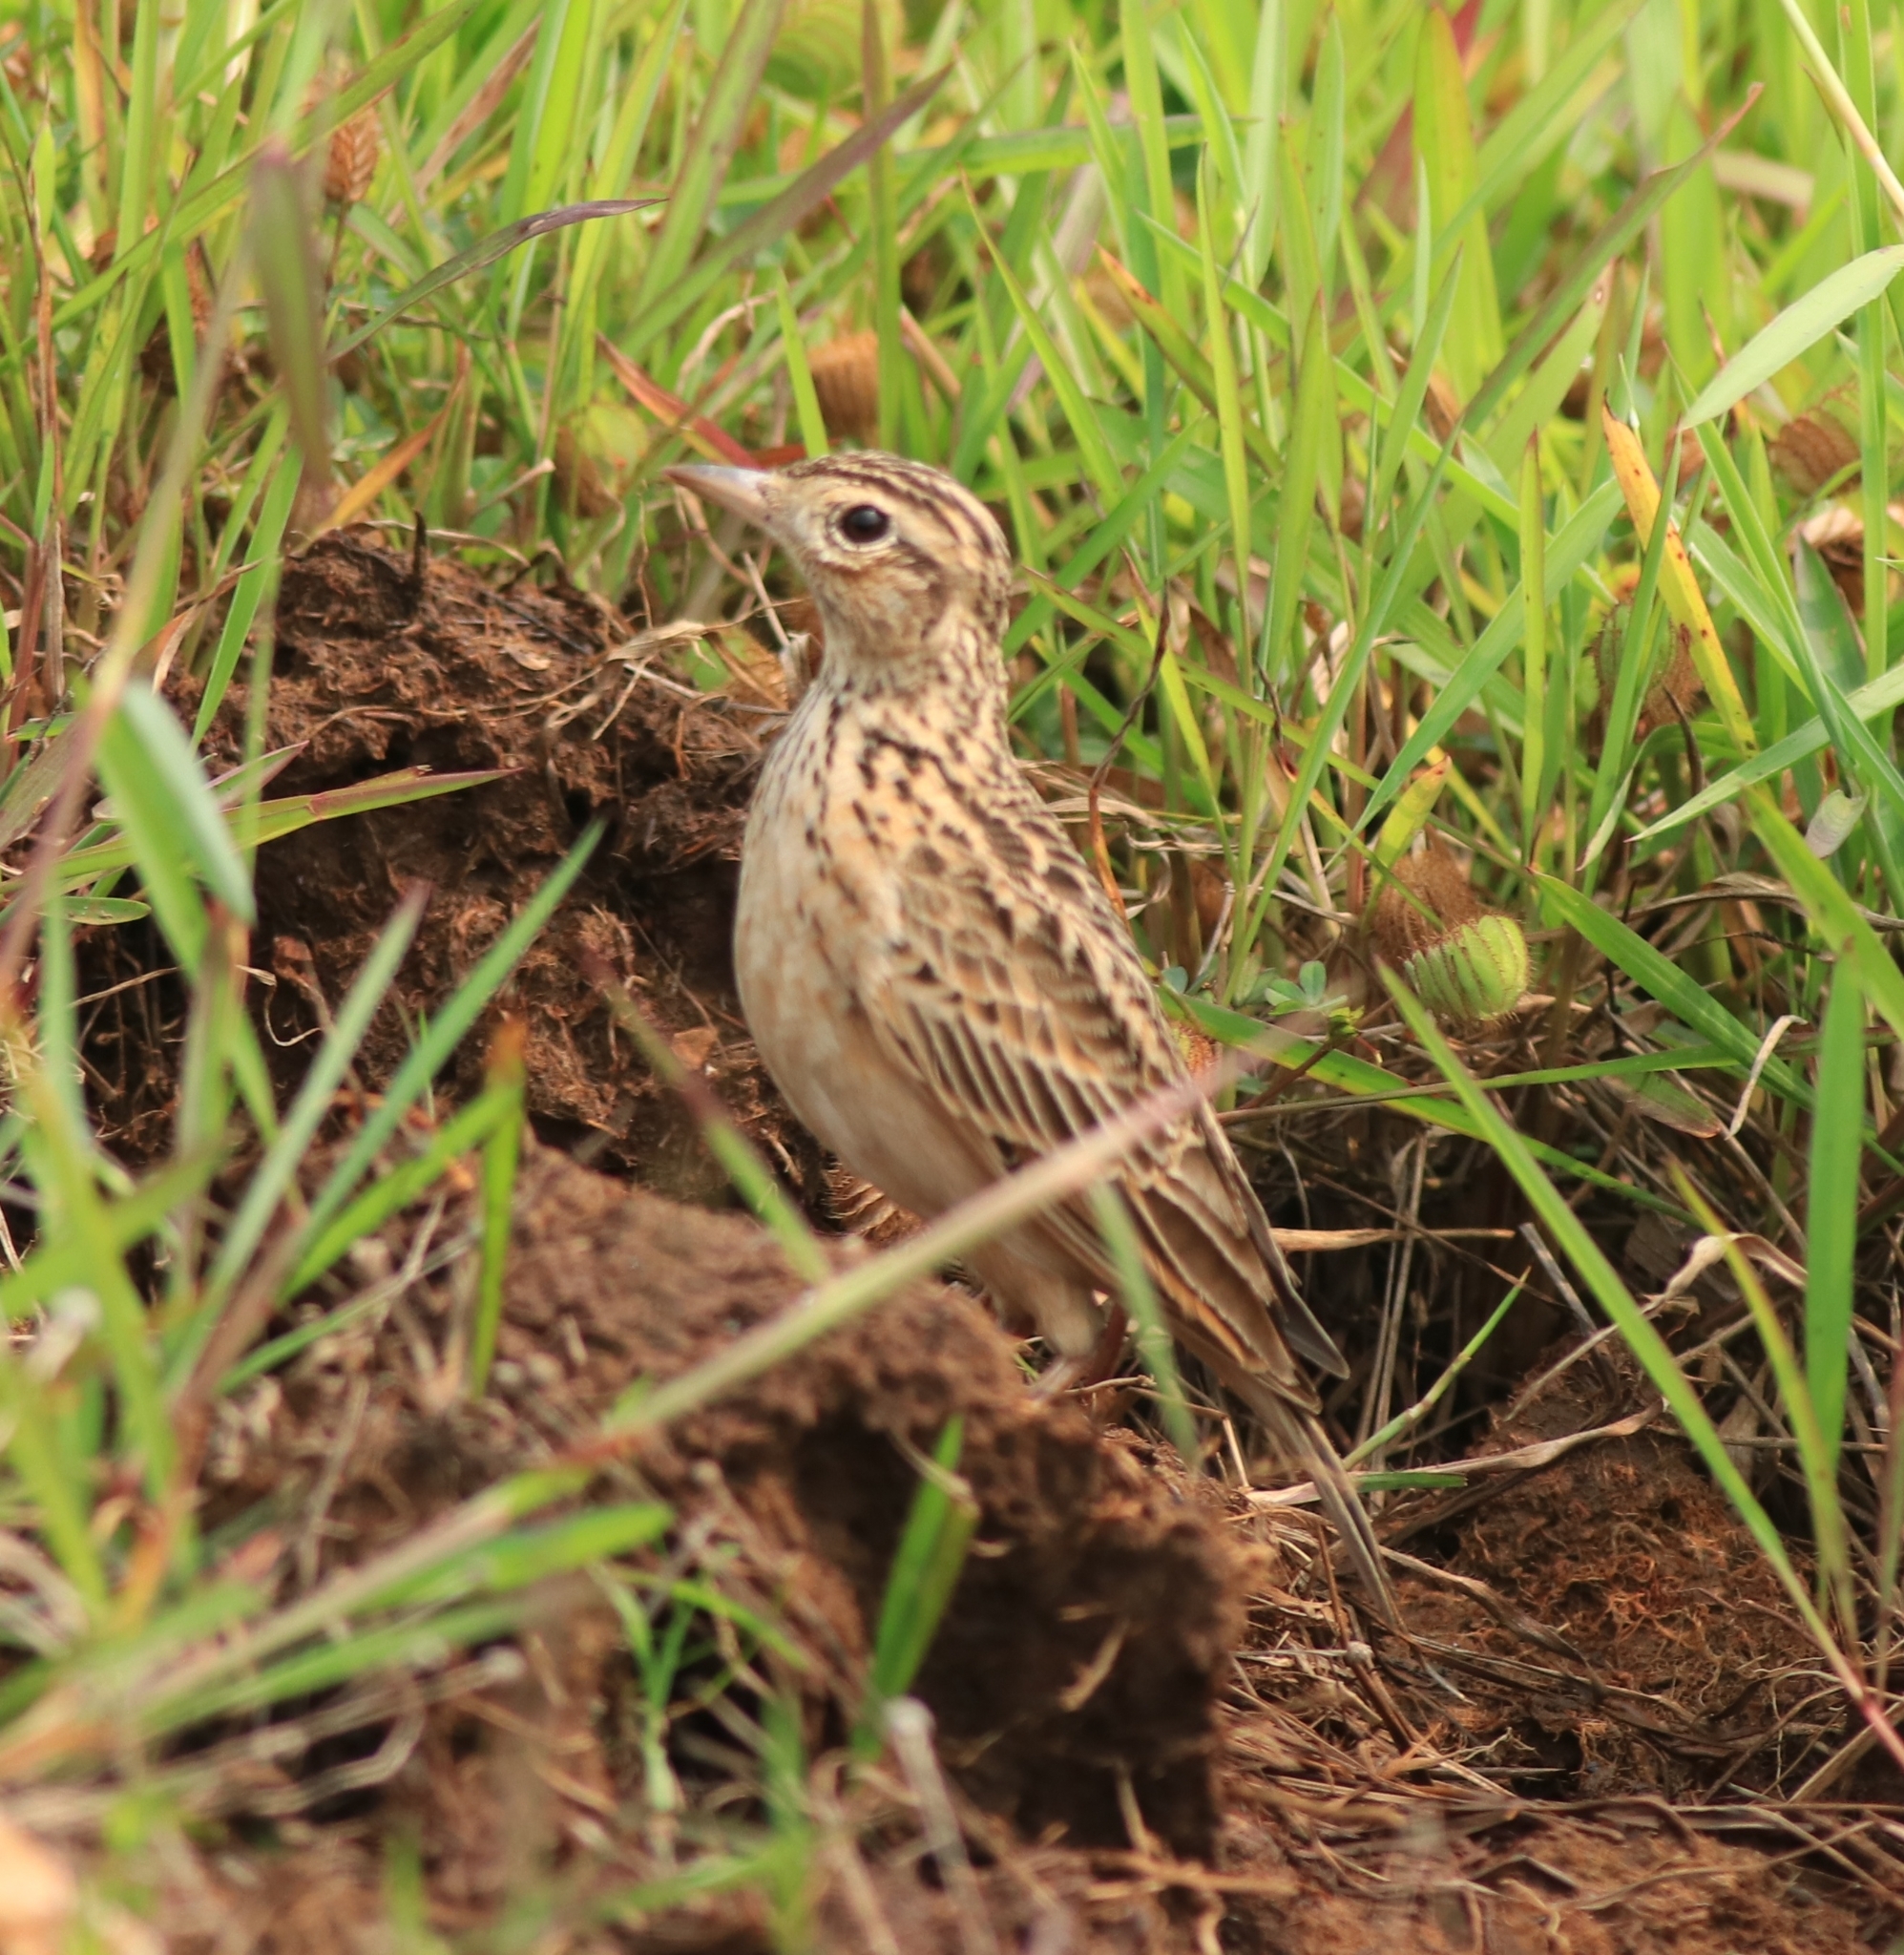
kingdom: Animalia
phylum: Chordata
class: Aves
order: Passeriformes
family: Alaudidae
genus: Alauda
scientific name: Alauda gulgula
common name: Oriental skylark
